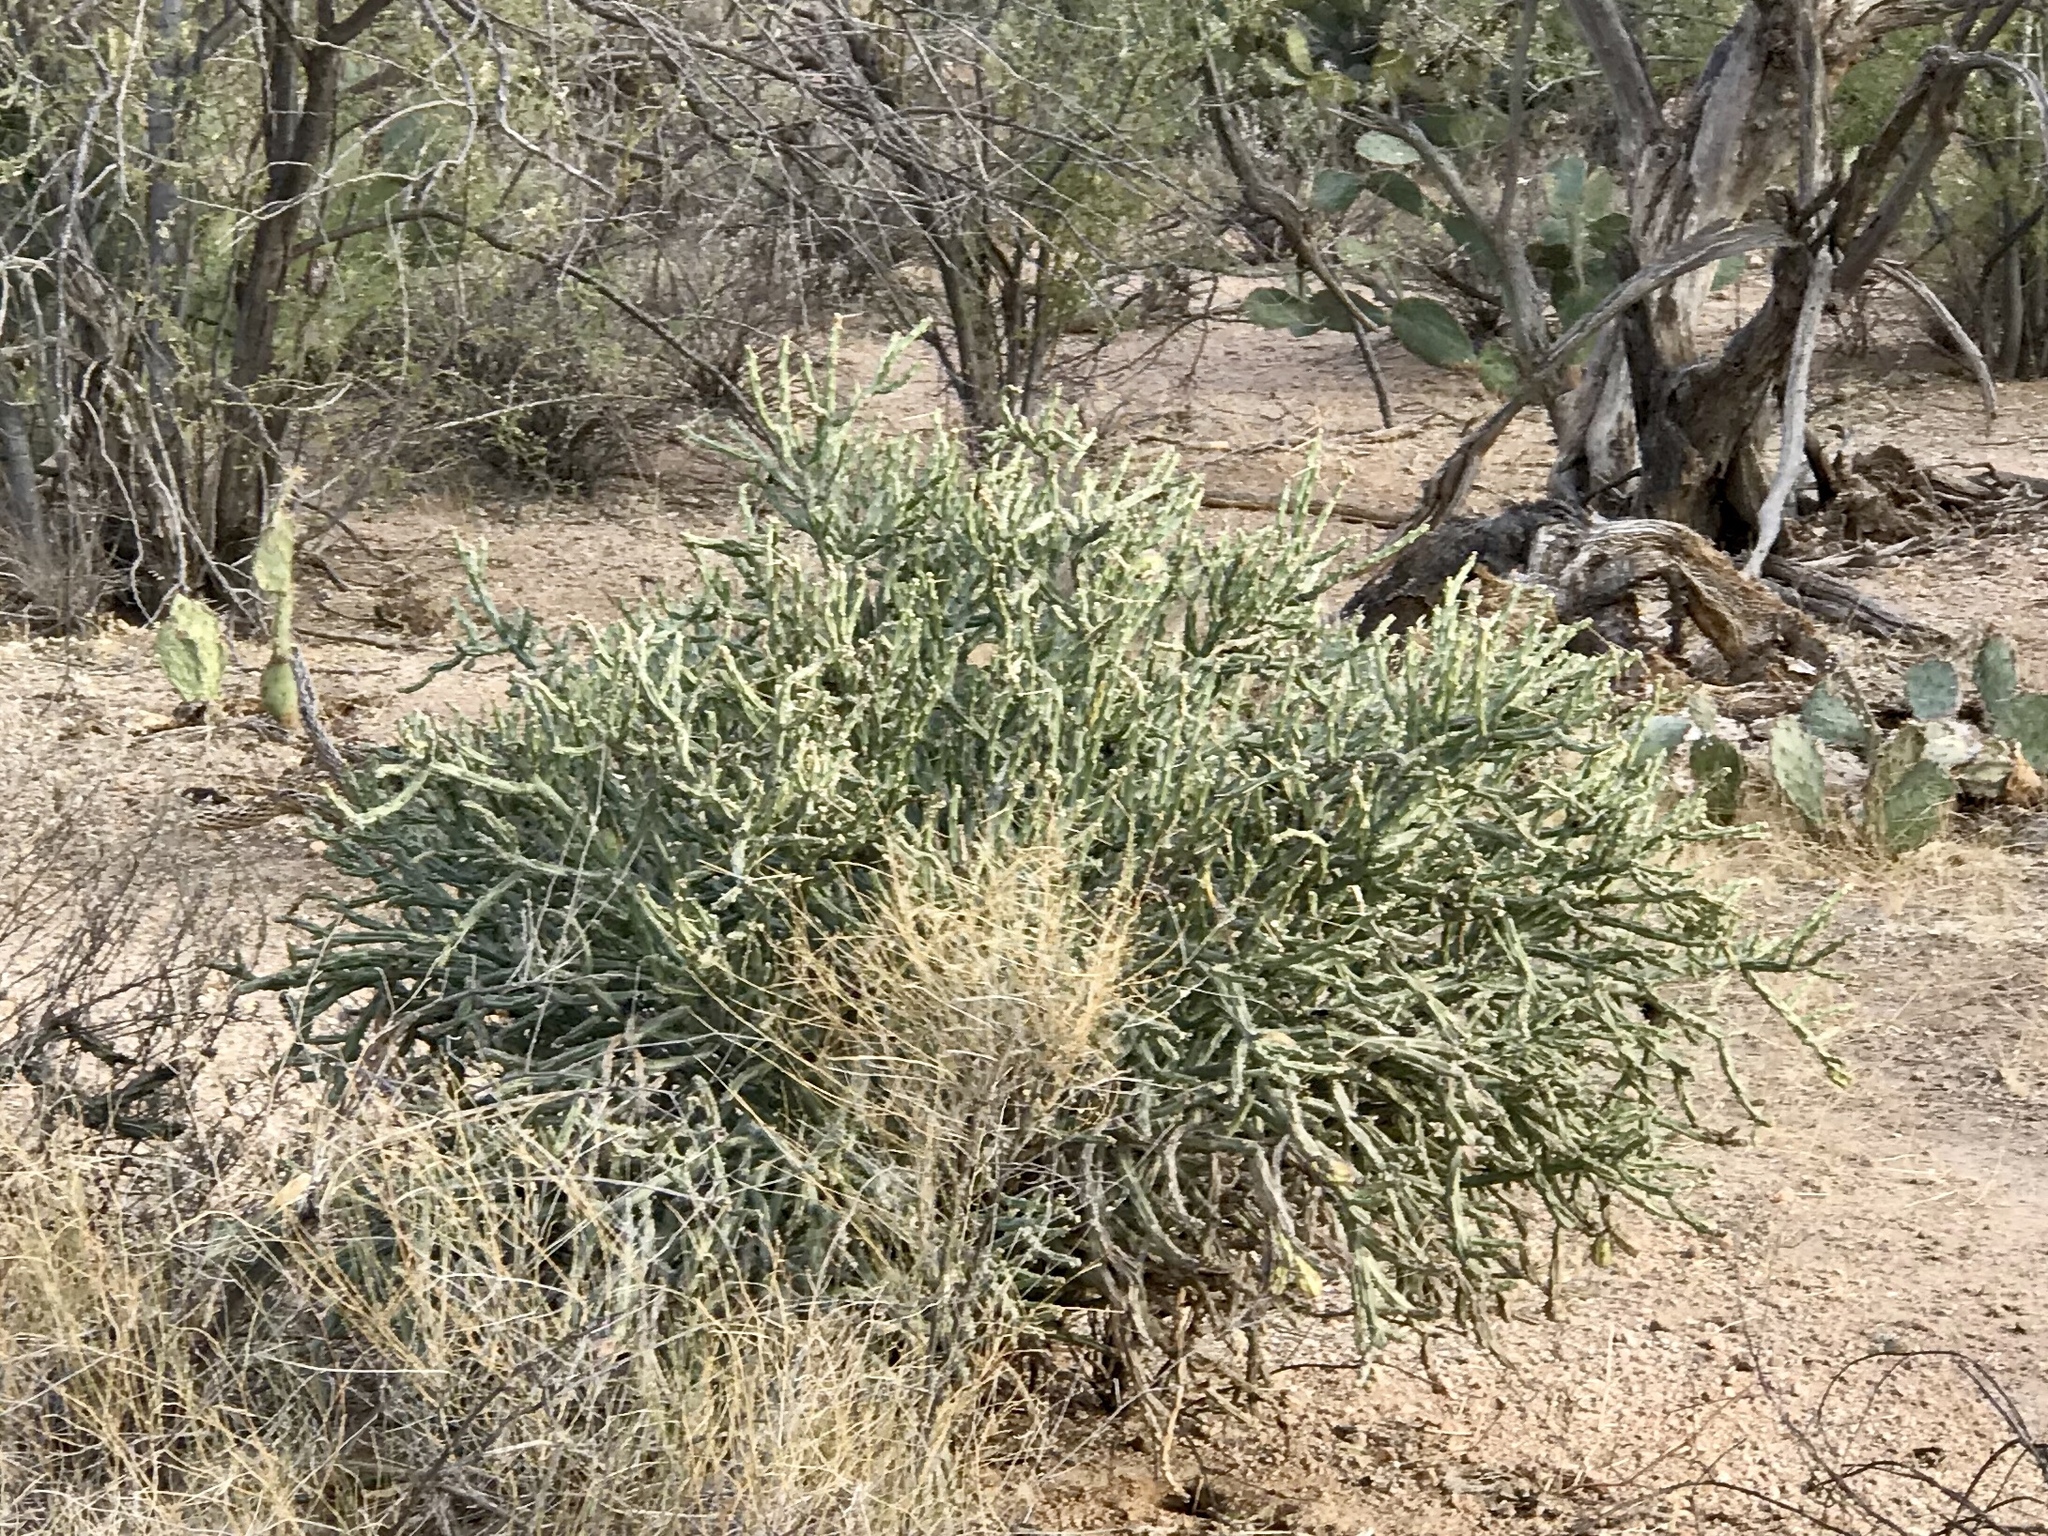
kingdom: Plantae
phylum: Tracheophyta
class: Magnoliopsida
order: Caryophyllales
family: Cactaceae
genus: Cylindropuntia
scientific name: Cylindropuntia arbuscula
